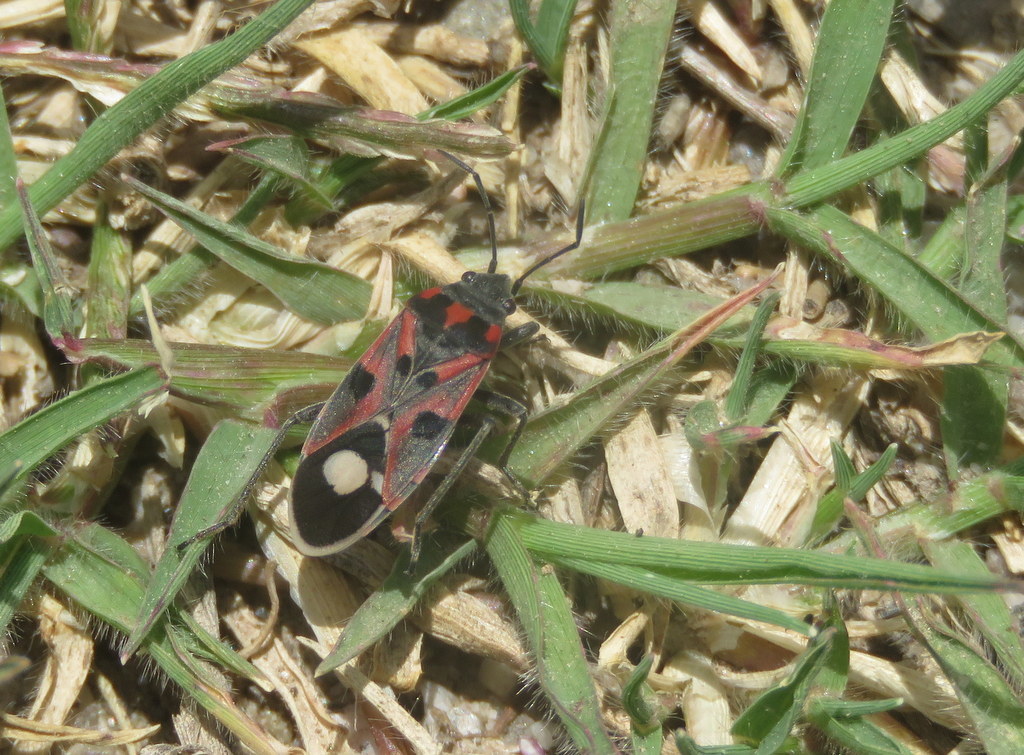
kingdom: Animalia
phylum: Arthropoda
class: Insecta
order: Hemiptera
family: Lygaeidae
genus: Lygaeus
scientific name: Lygaeus alboornatus
